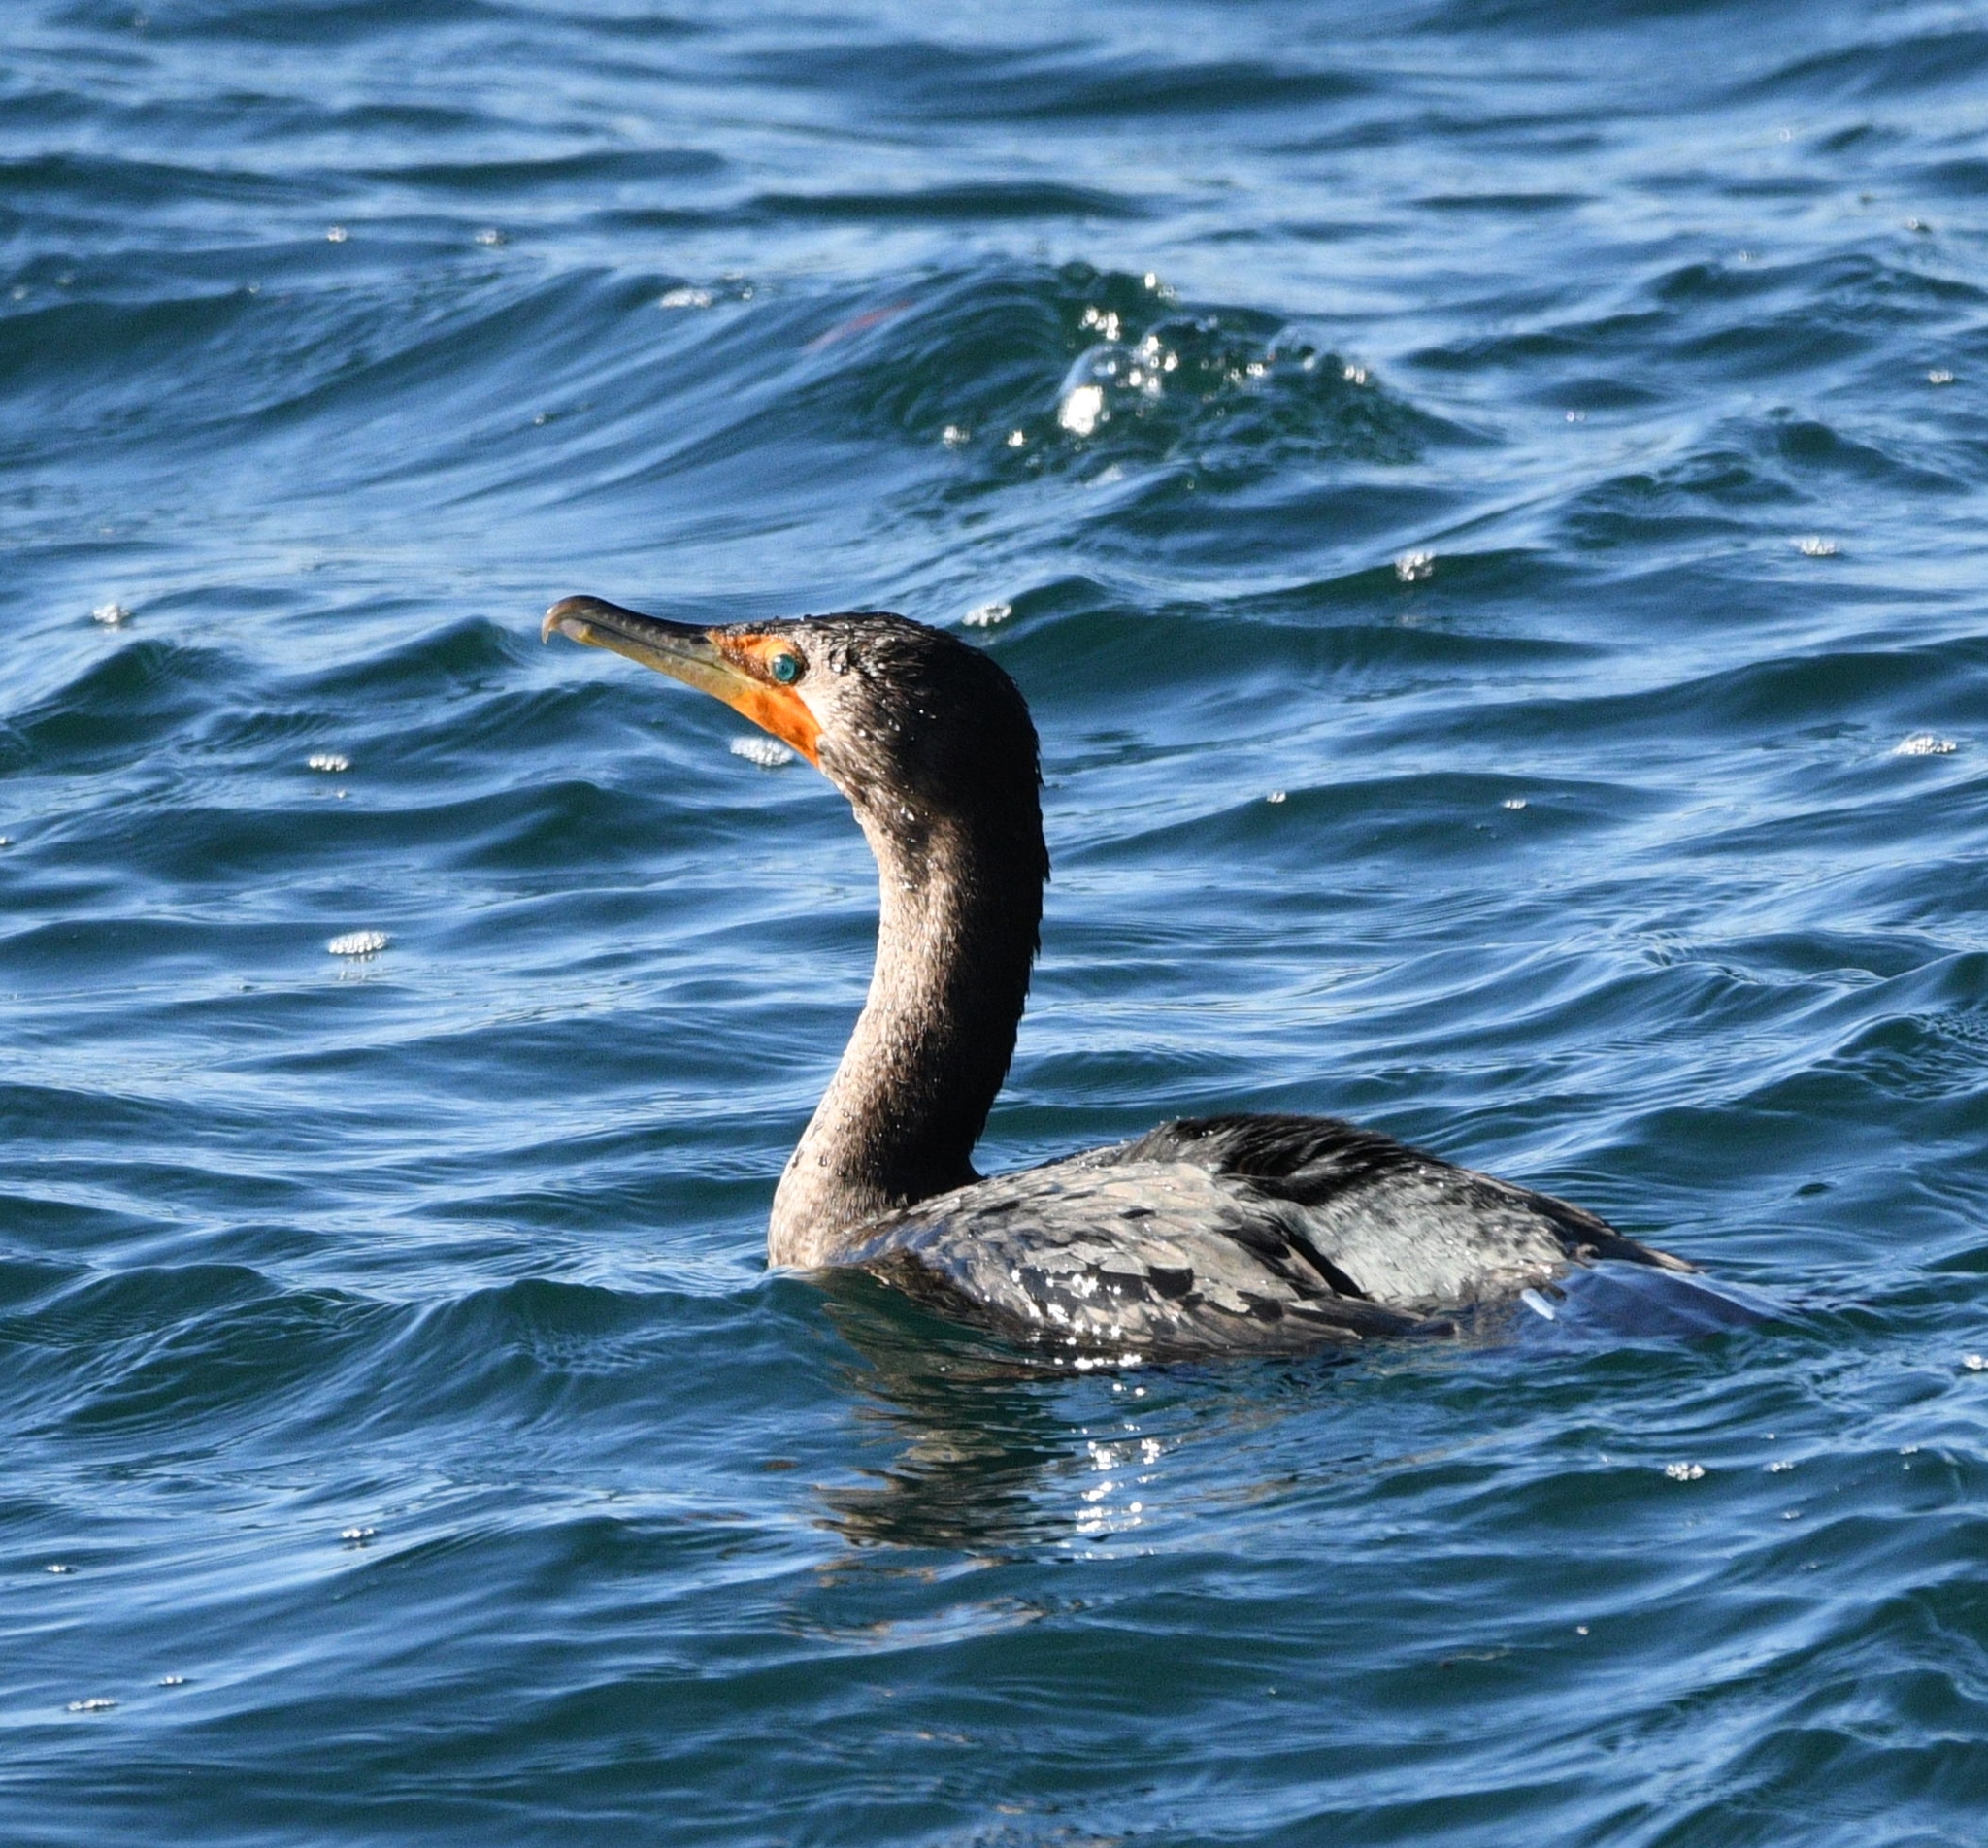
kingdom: Animalia
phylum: Chordata
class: Aves
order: Suliformes
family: Phalacrocoracidae
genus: Phalacrocorax
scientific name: Phalacrocorax auritus
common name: Double-crested cormorant
